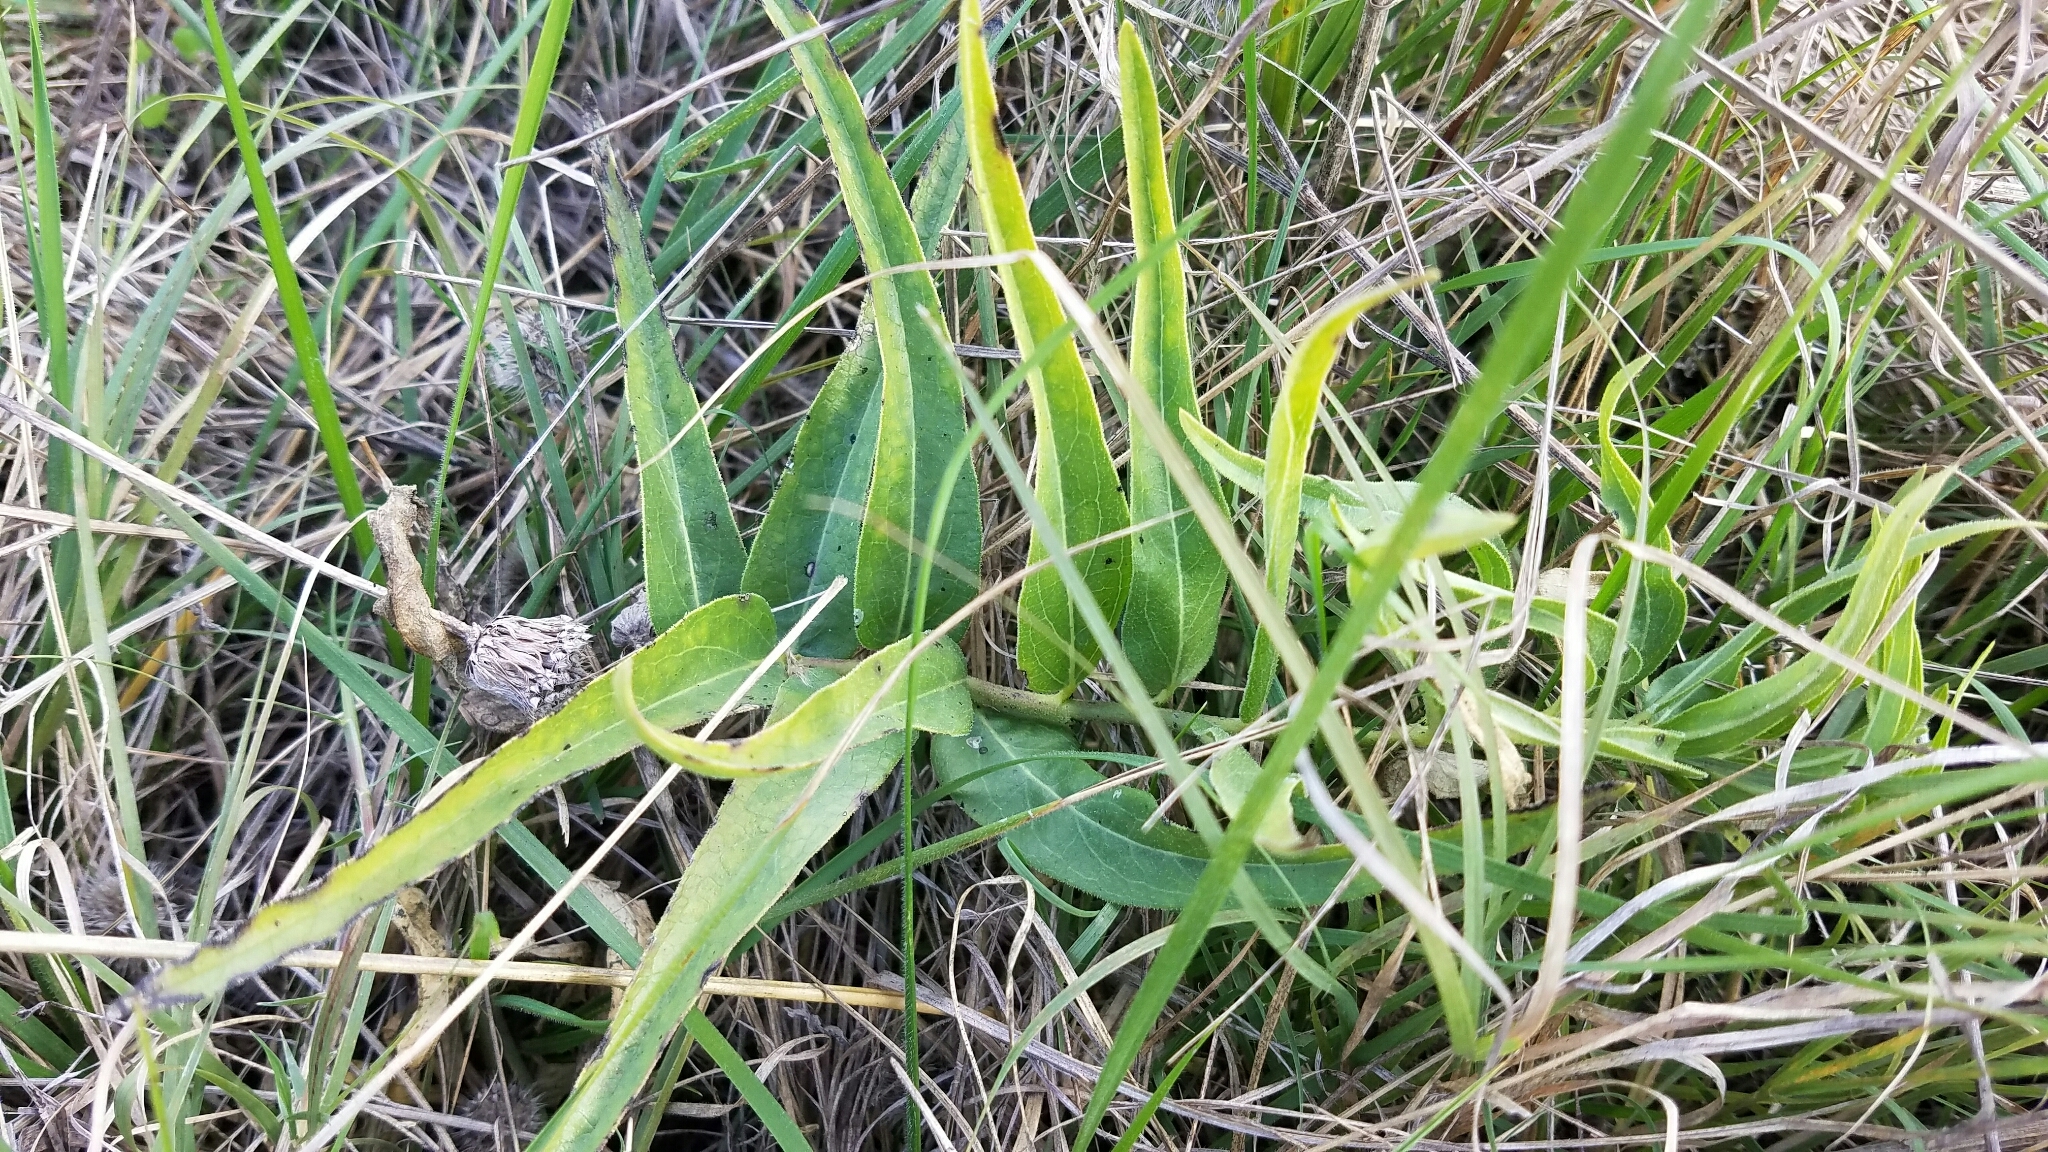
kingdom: Plantae
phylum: Tracheophyta
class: Magnoliopsida
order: Gentianales
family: Apocynaceae
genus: Asclepias
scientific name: Asclepias asperula
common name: Antelope horns
